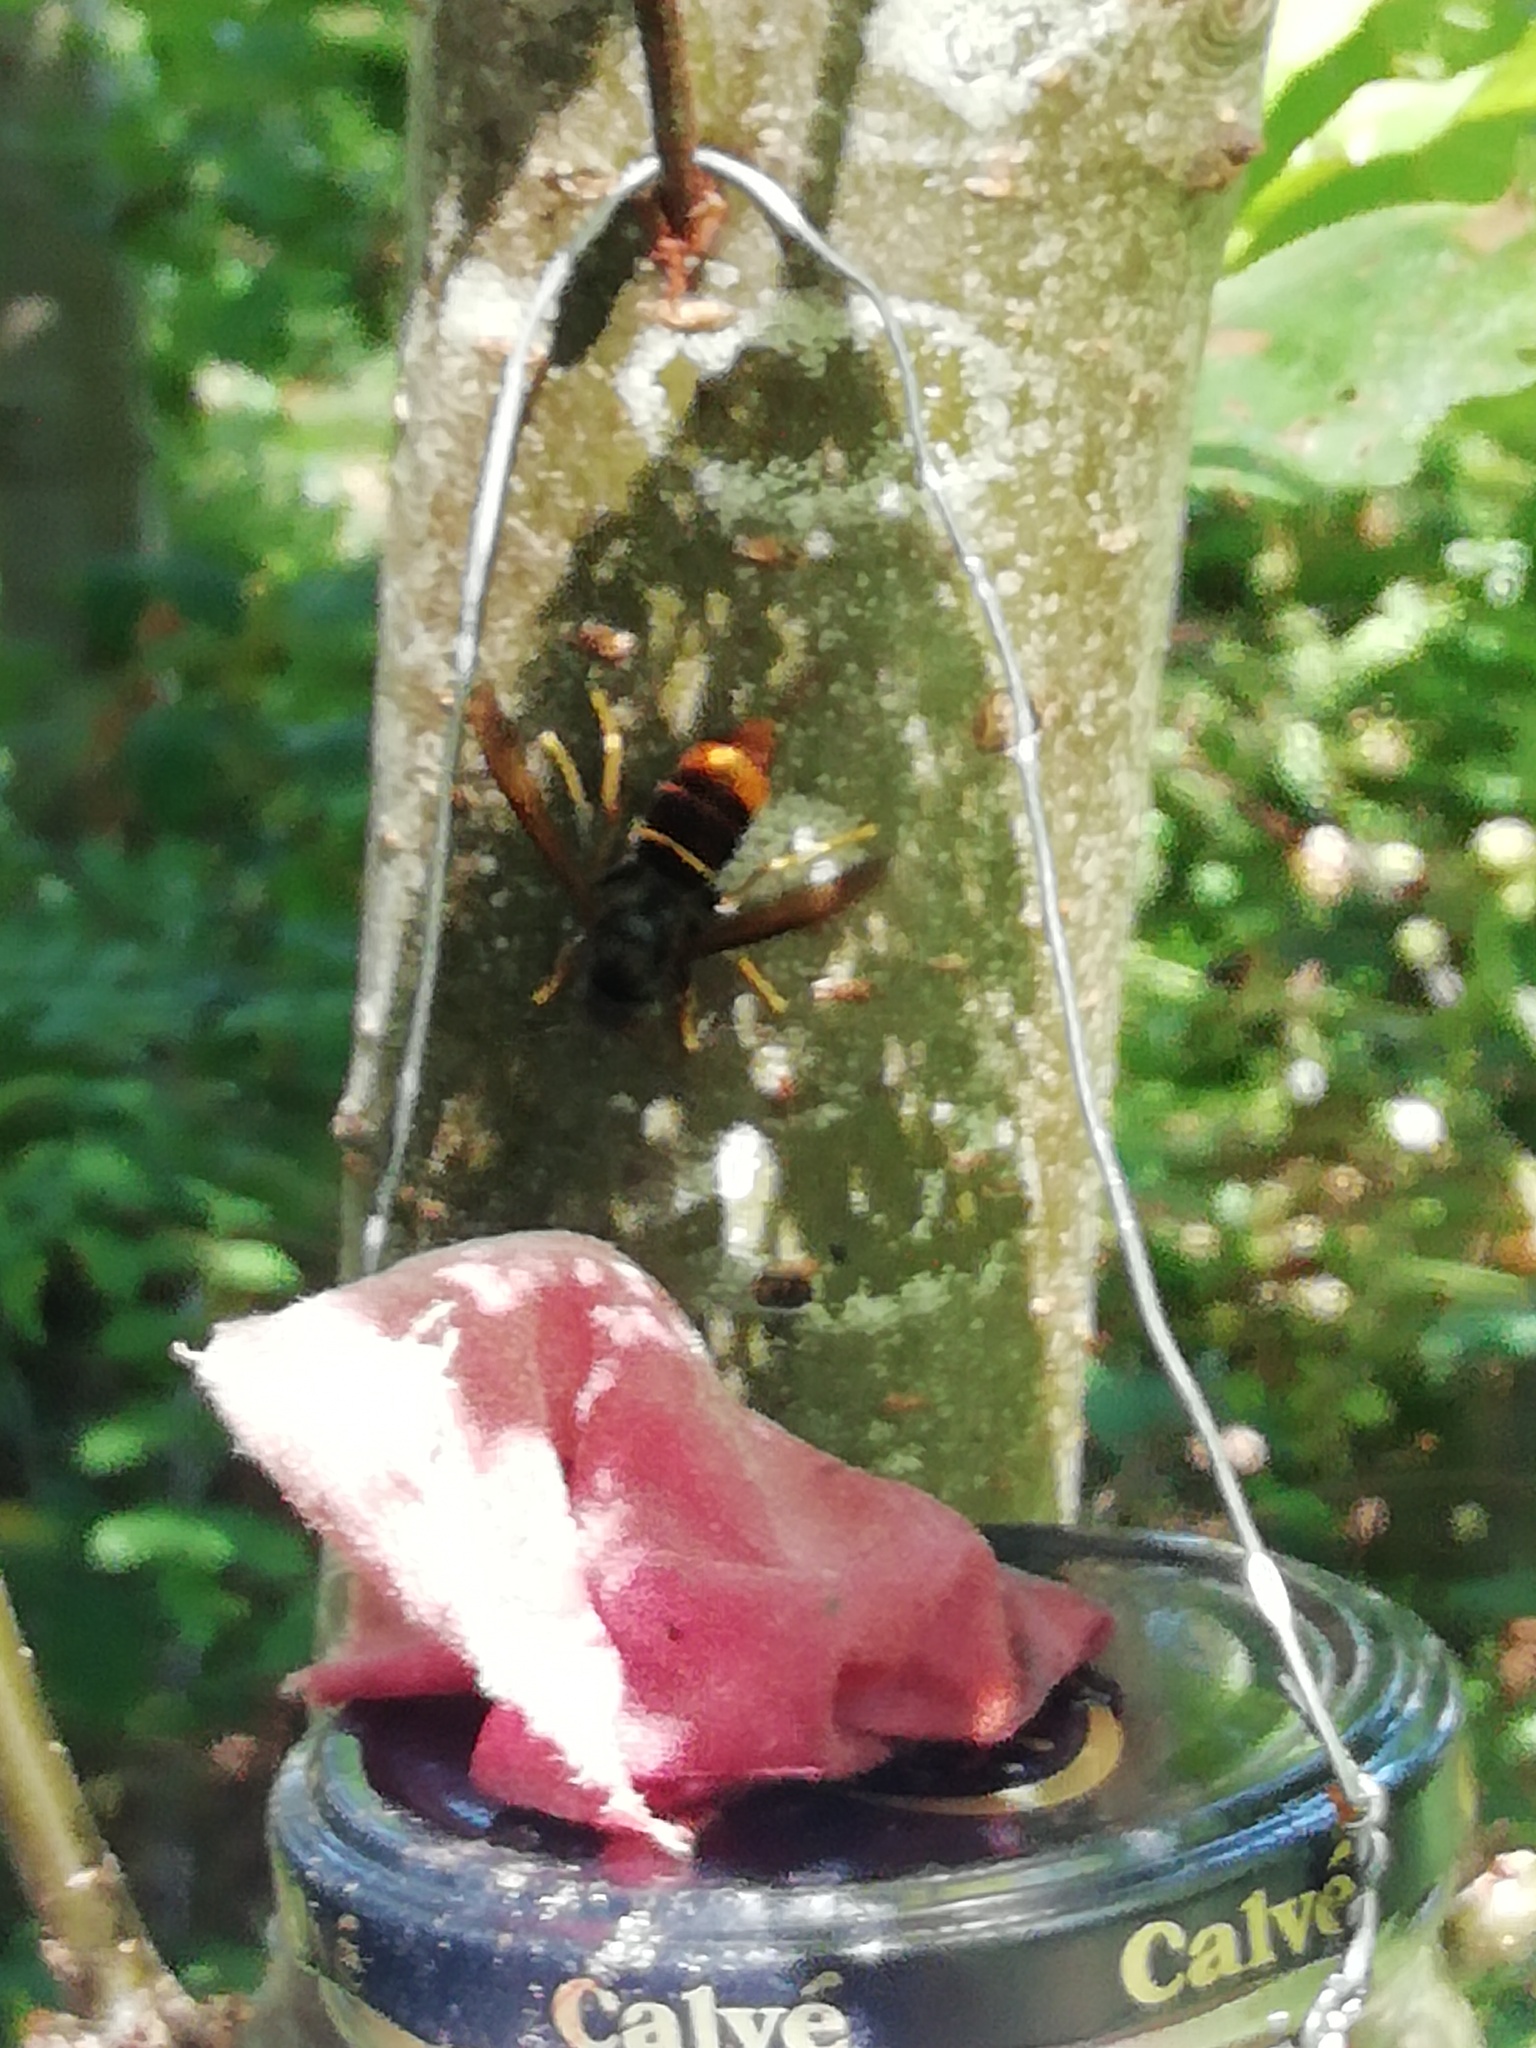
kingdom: Animalia
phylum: Arthropoda
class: Insecta
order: Hymenoptera
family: Vespidae
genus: Vespa
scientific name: Vespa velutina
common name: Asian hornet
